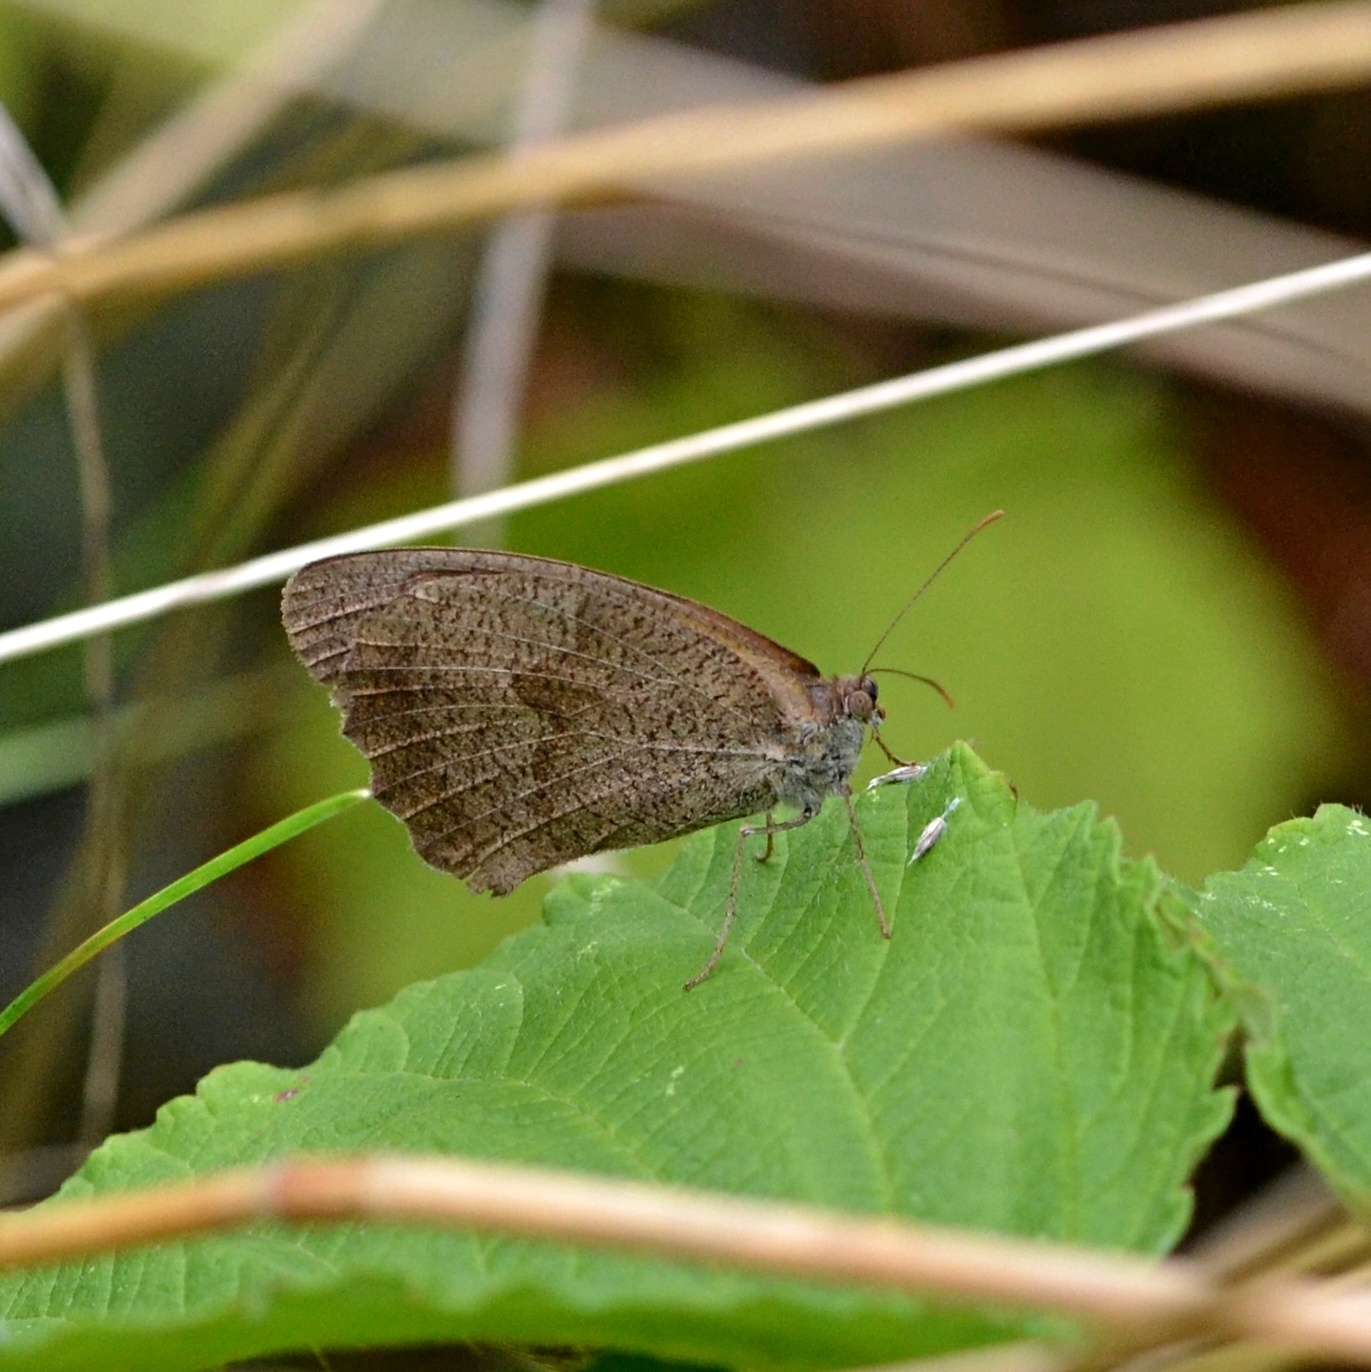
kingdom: Animalia
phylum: Arthropoda
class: Insecta
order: Lepidoptera
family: Nymphalidae
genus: Maniola
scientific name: Maniola jurtina
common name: Meadow brown
